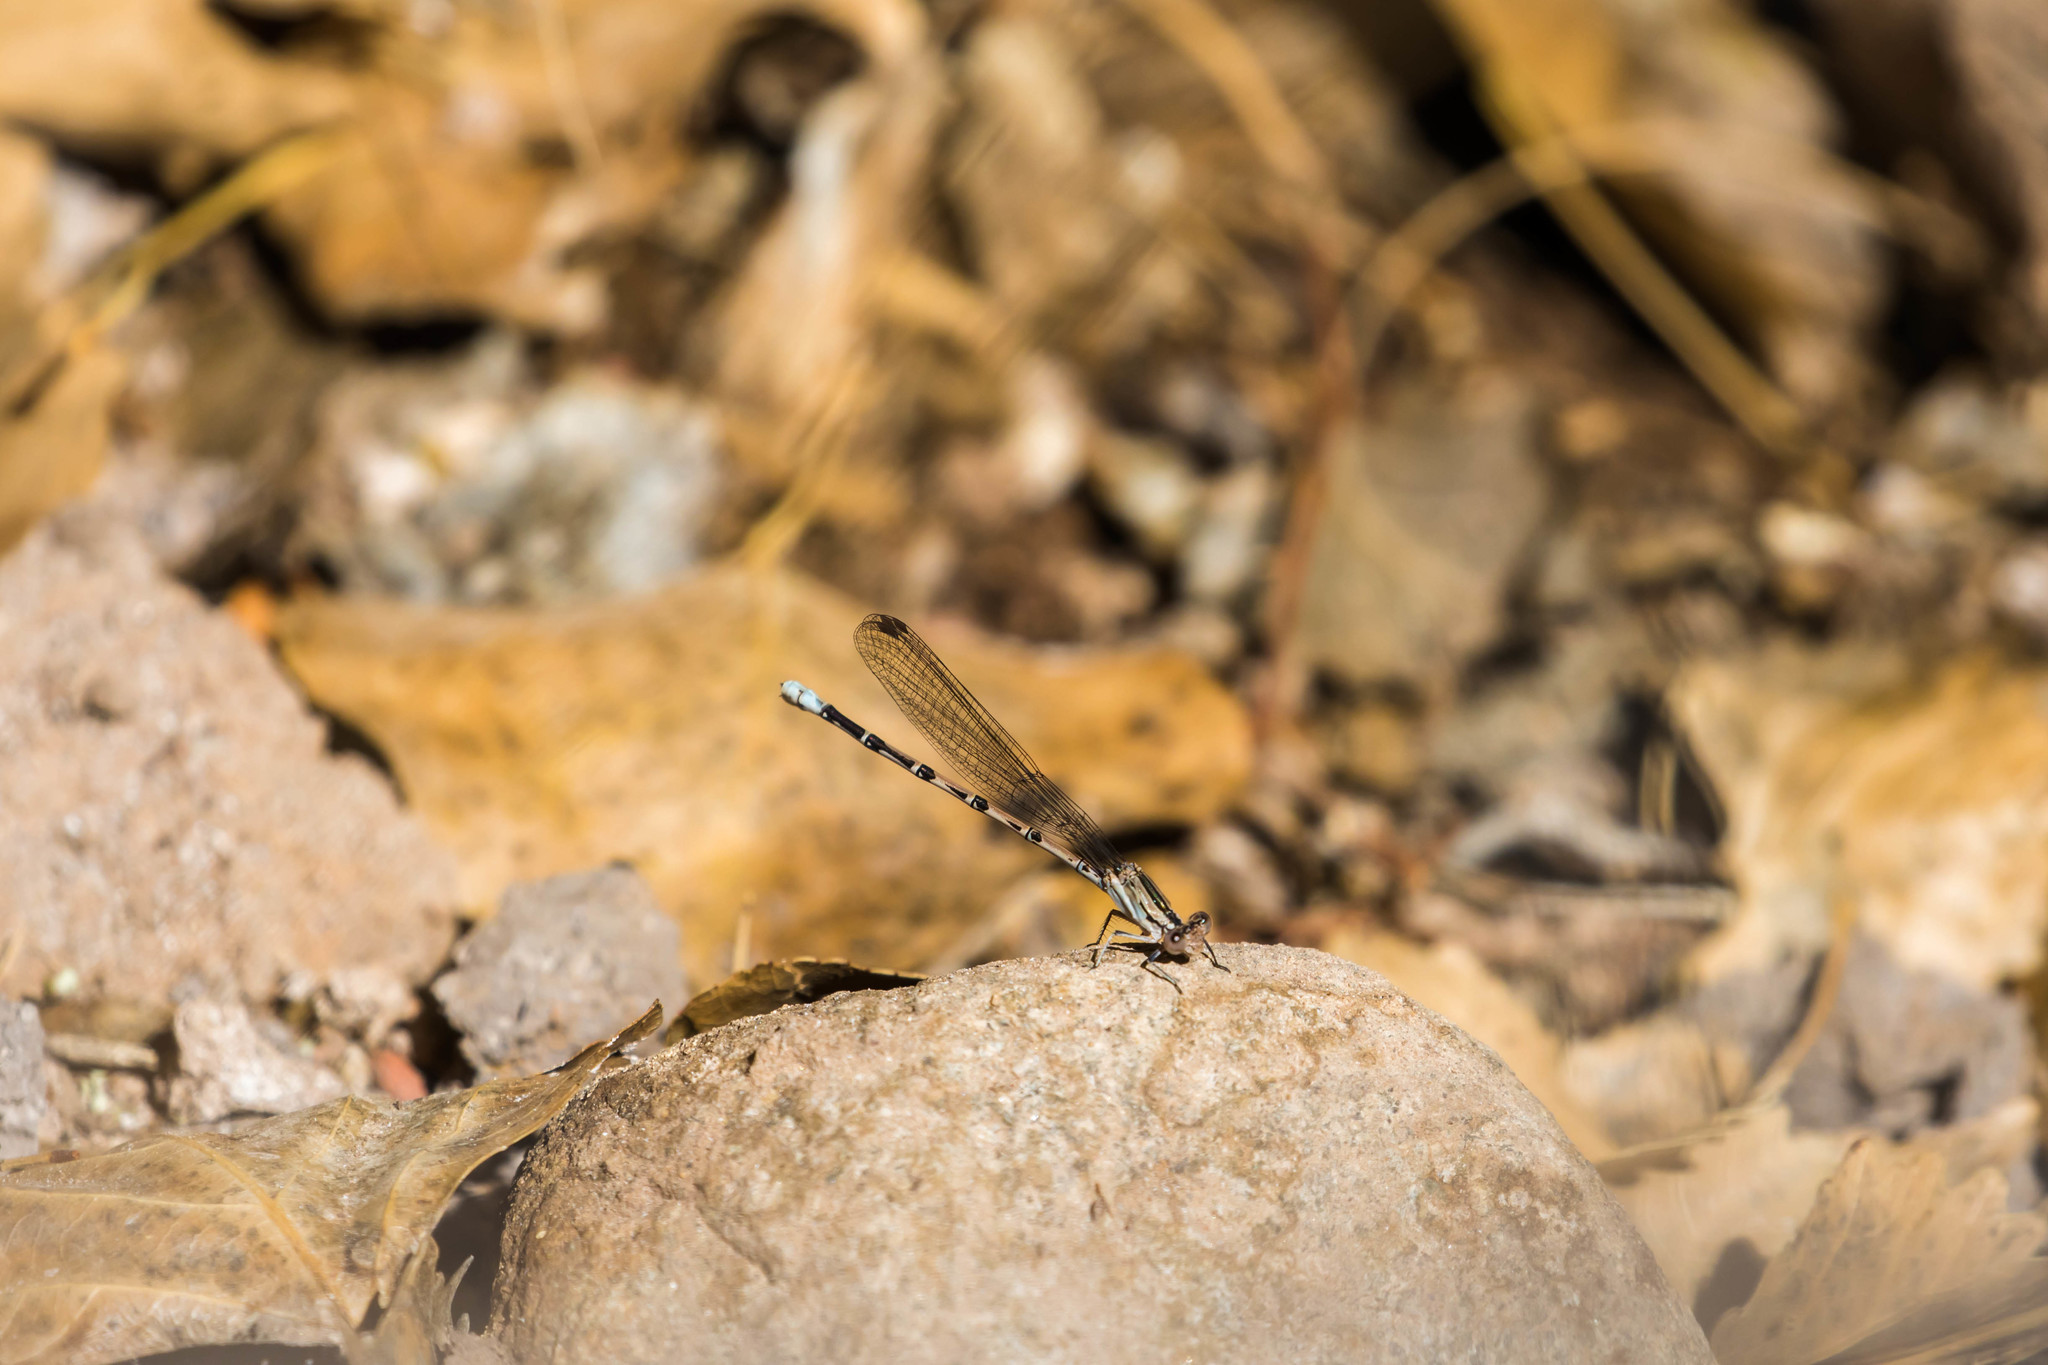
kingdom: Animalia
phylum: Arthropoda
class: Insecta
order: Odonata
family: Coenagrionidae
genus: Argia
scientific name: Argia funebris
